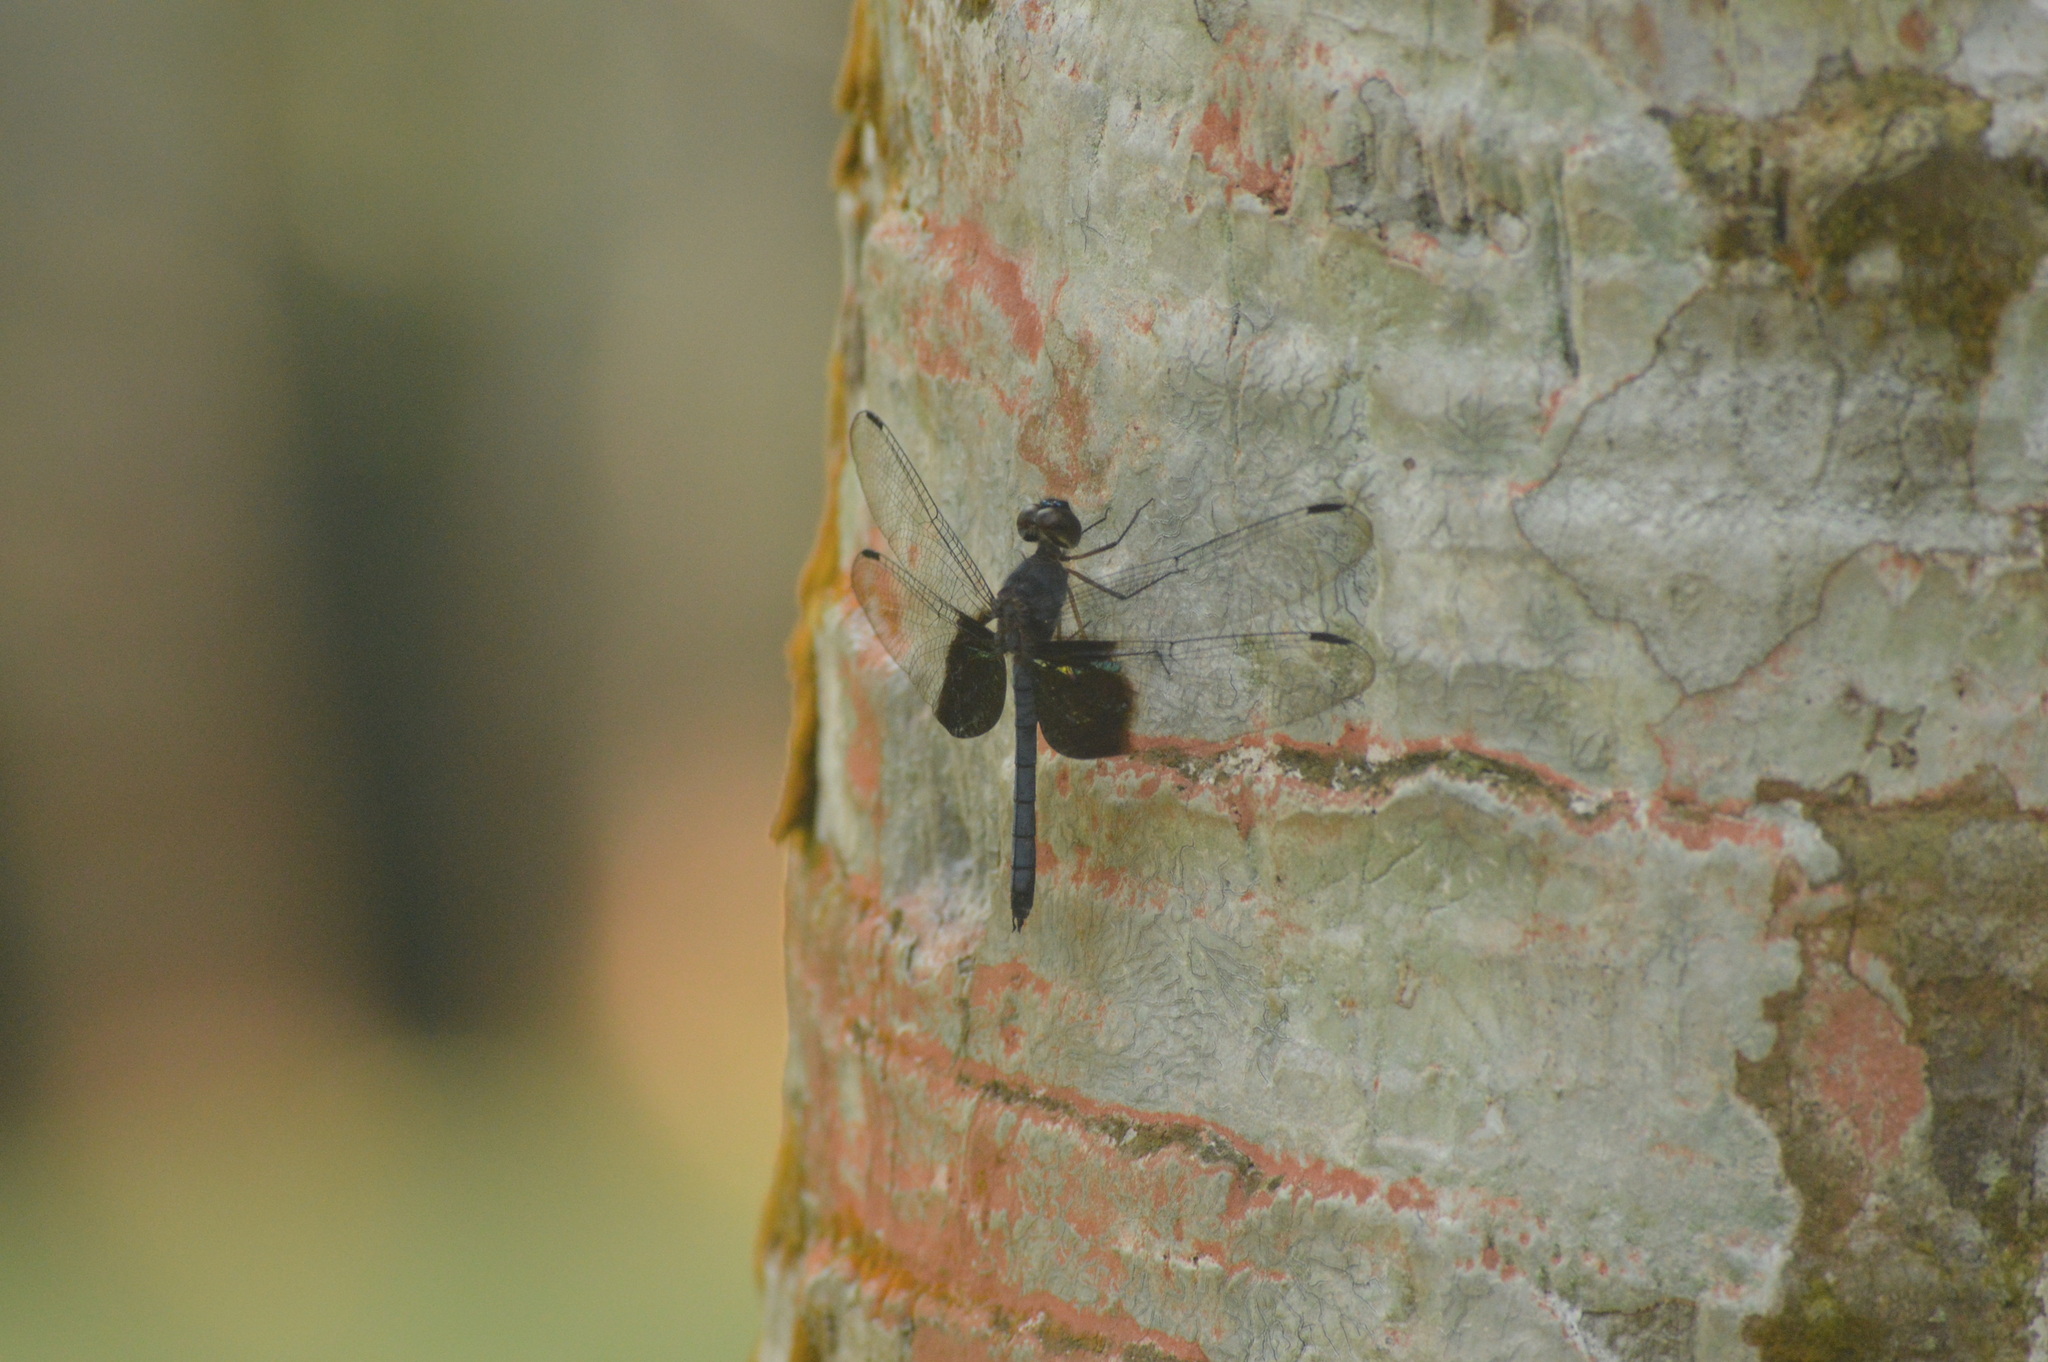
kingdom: Animalia
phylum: Arthropoda
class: Insecta
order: Odonata
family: Libellulidae
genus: Tyriobapta
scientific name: Tyriobapta torrida
